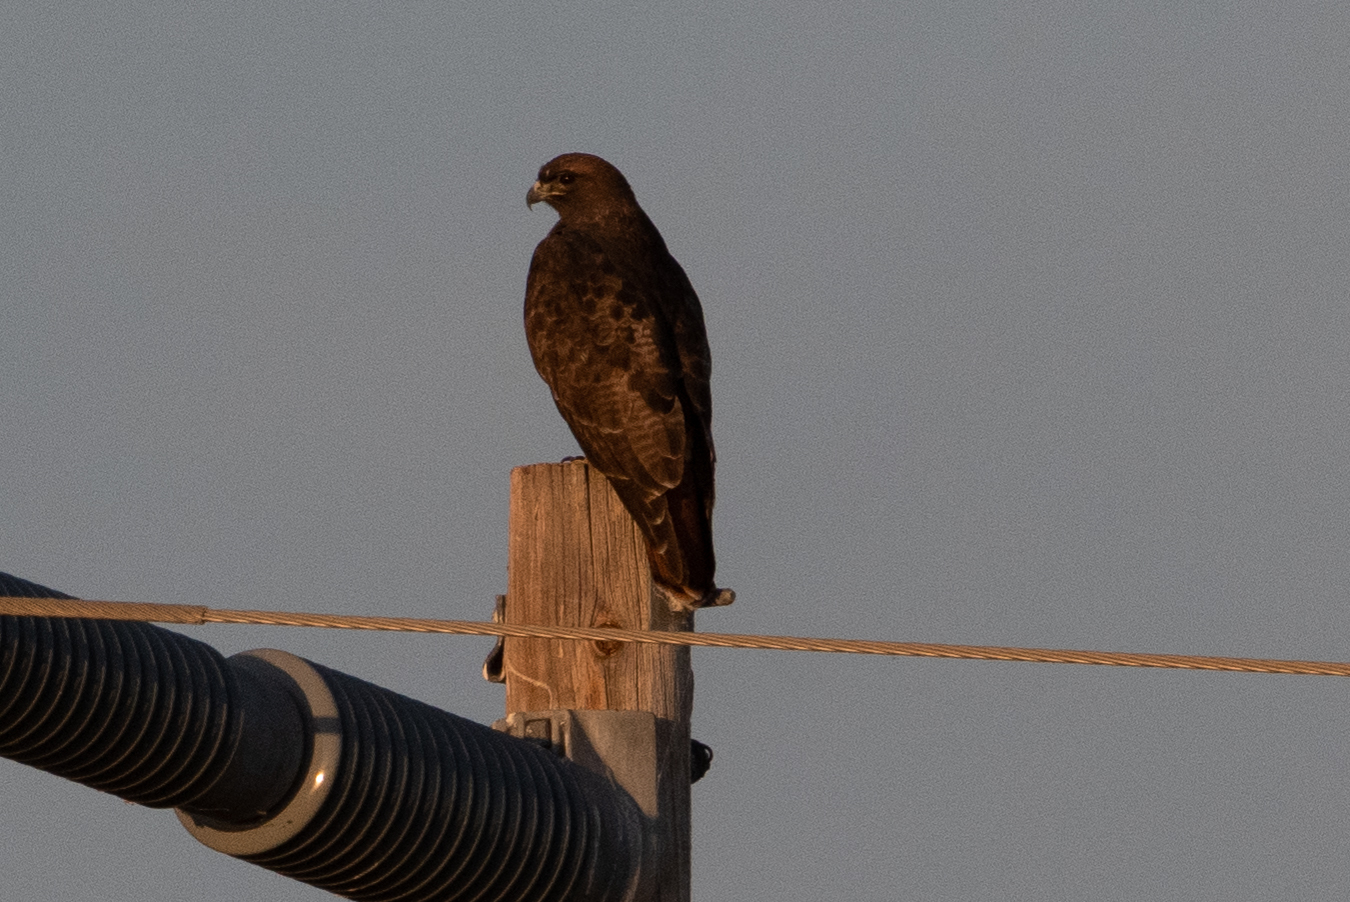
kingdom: Animalia
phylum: Chordata
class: Aves
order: Accipitriformes
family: Accipitridae
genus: Buteo
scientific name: Buteo jamaicensis
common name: Red-tailed hawk
